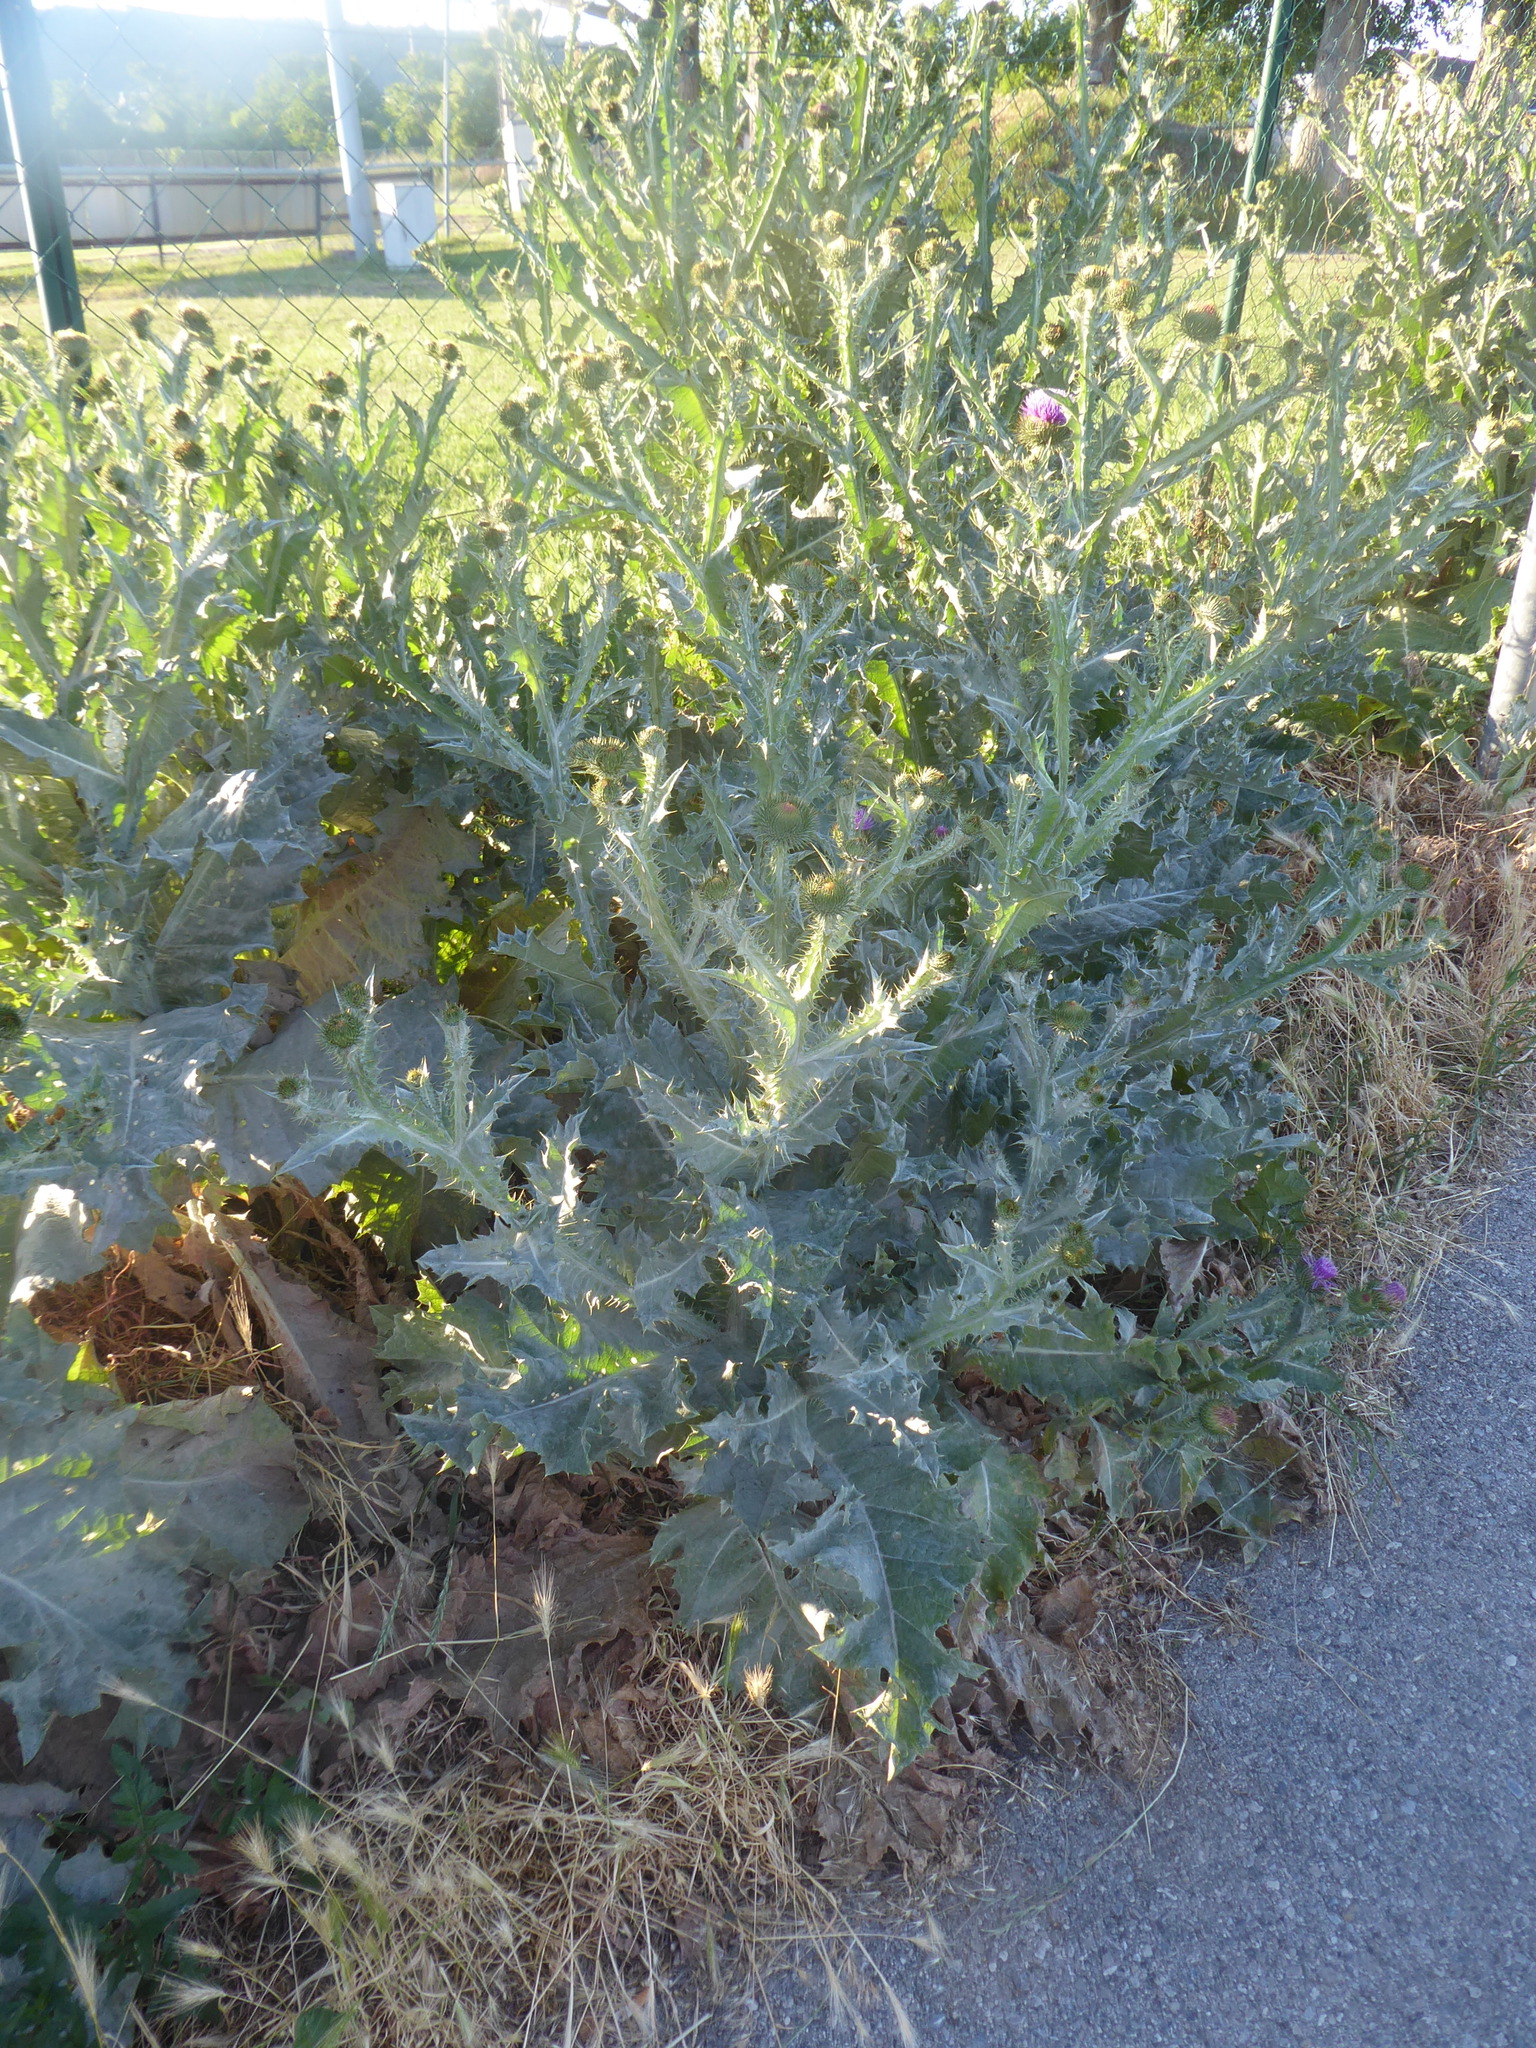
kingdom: Plantae
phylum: Tracheophyta
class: Magnoliopsida
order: Asterales
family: Asteraceae
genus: Onopordum
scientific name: Onopordum acanthium
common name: Scotch thistle
